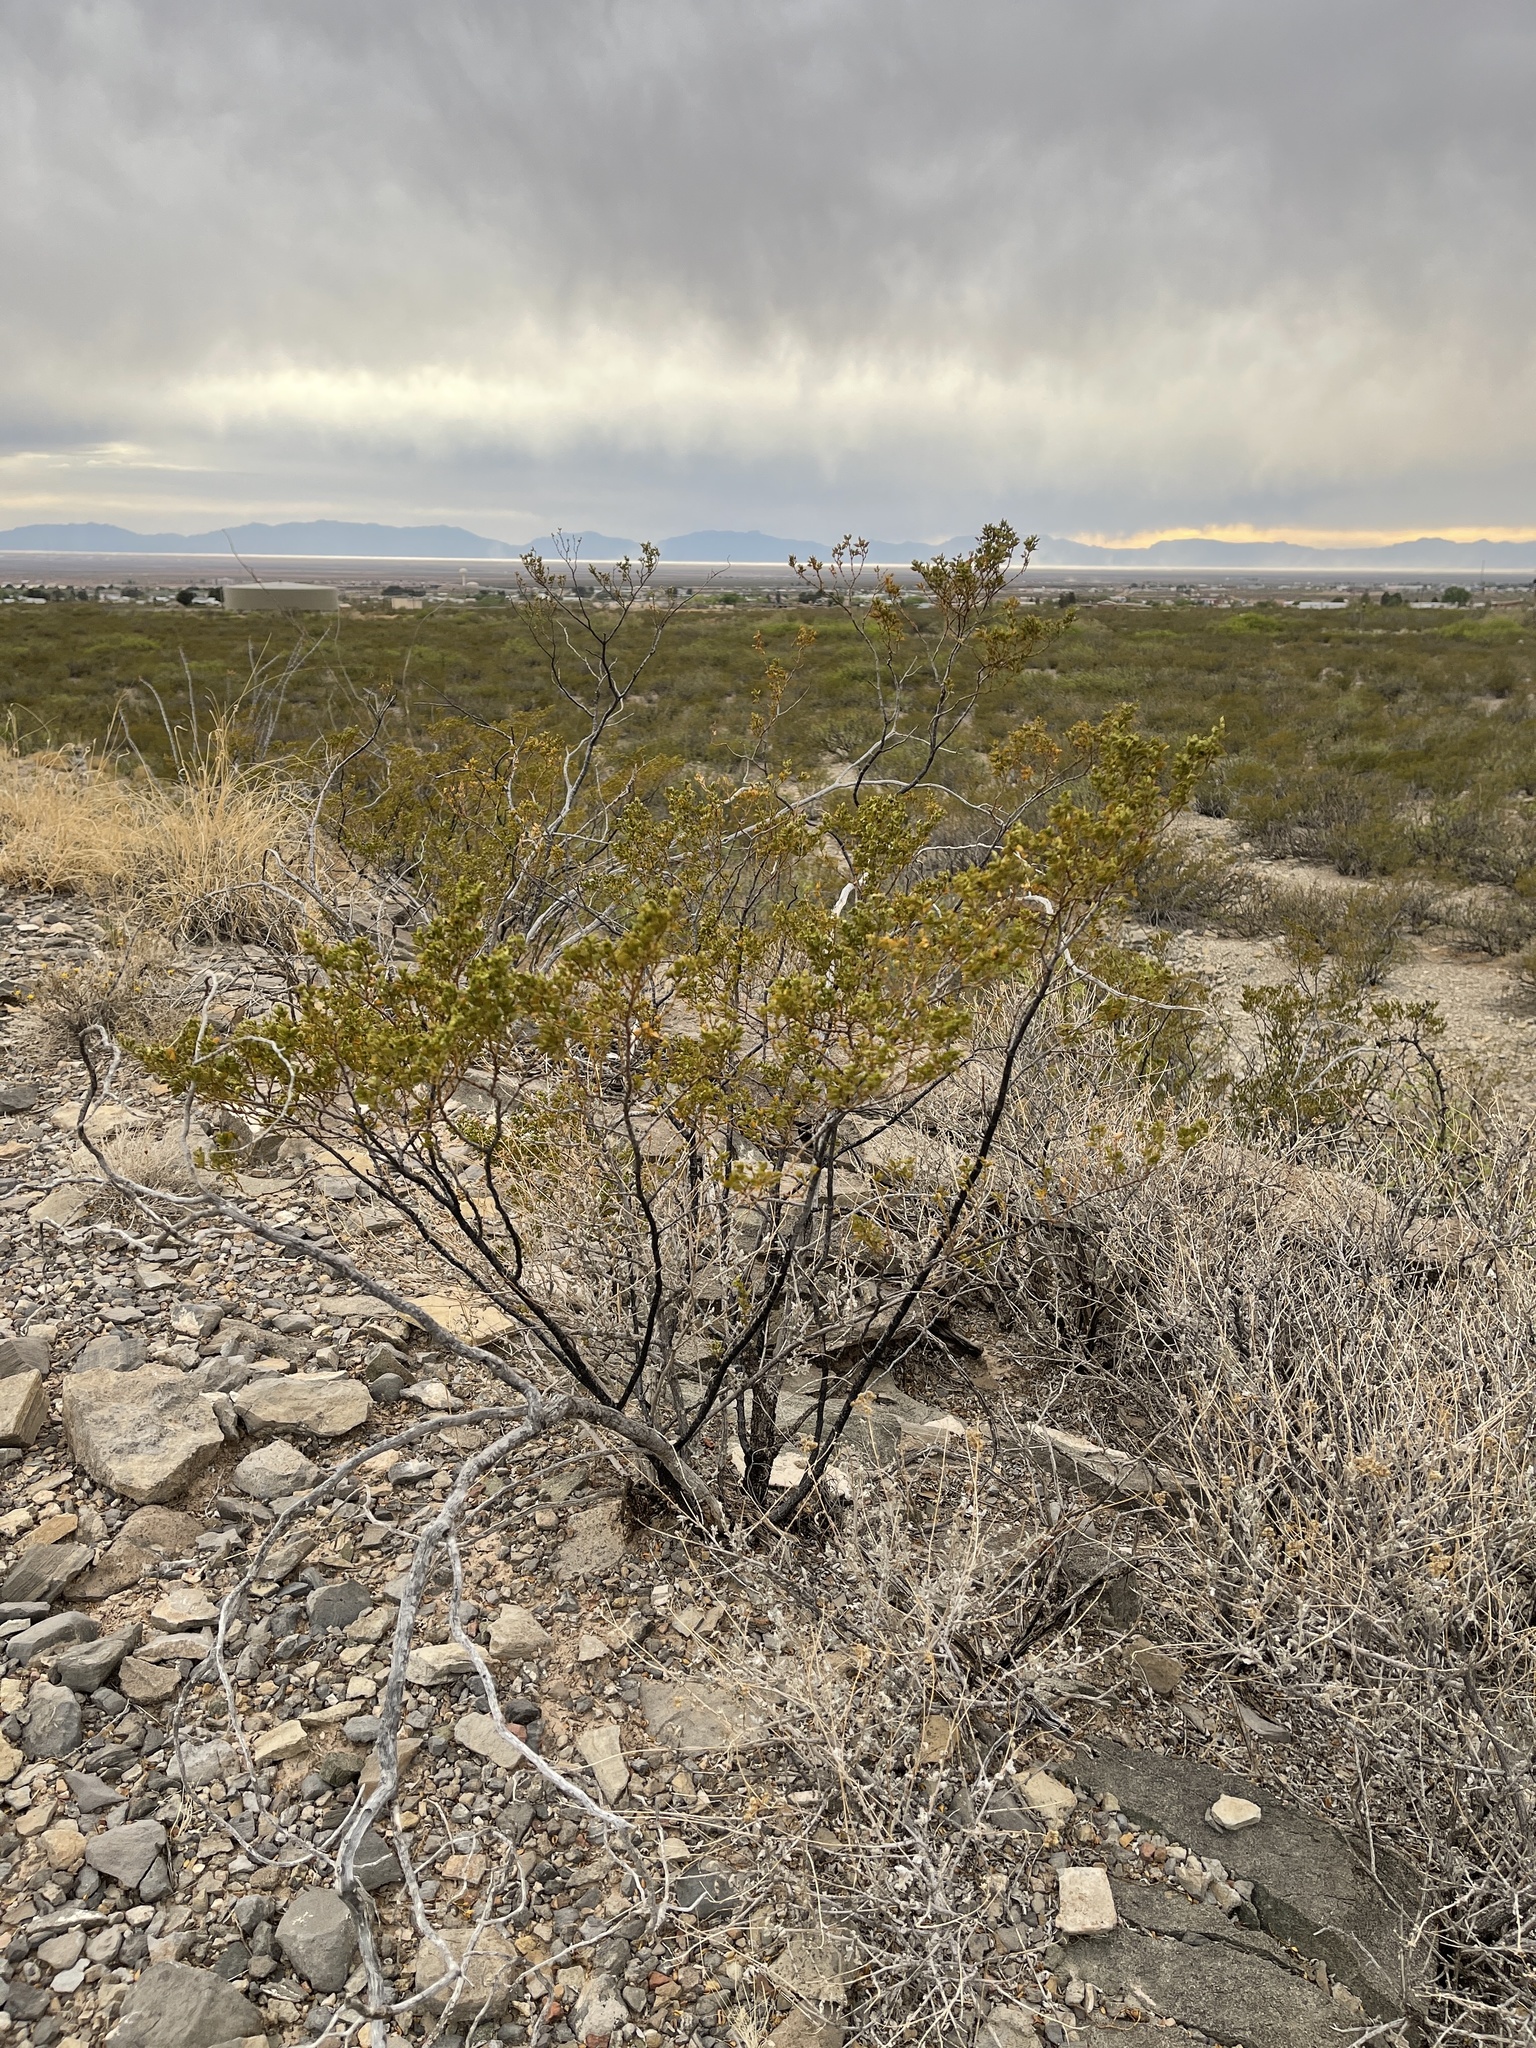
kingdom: Plantae
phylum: Tracheophyta
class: Magnoliopsida
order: Zygophyllales
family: Zygophyllaceae
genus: Larrea
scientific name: Larrea tridentata
